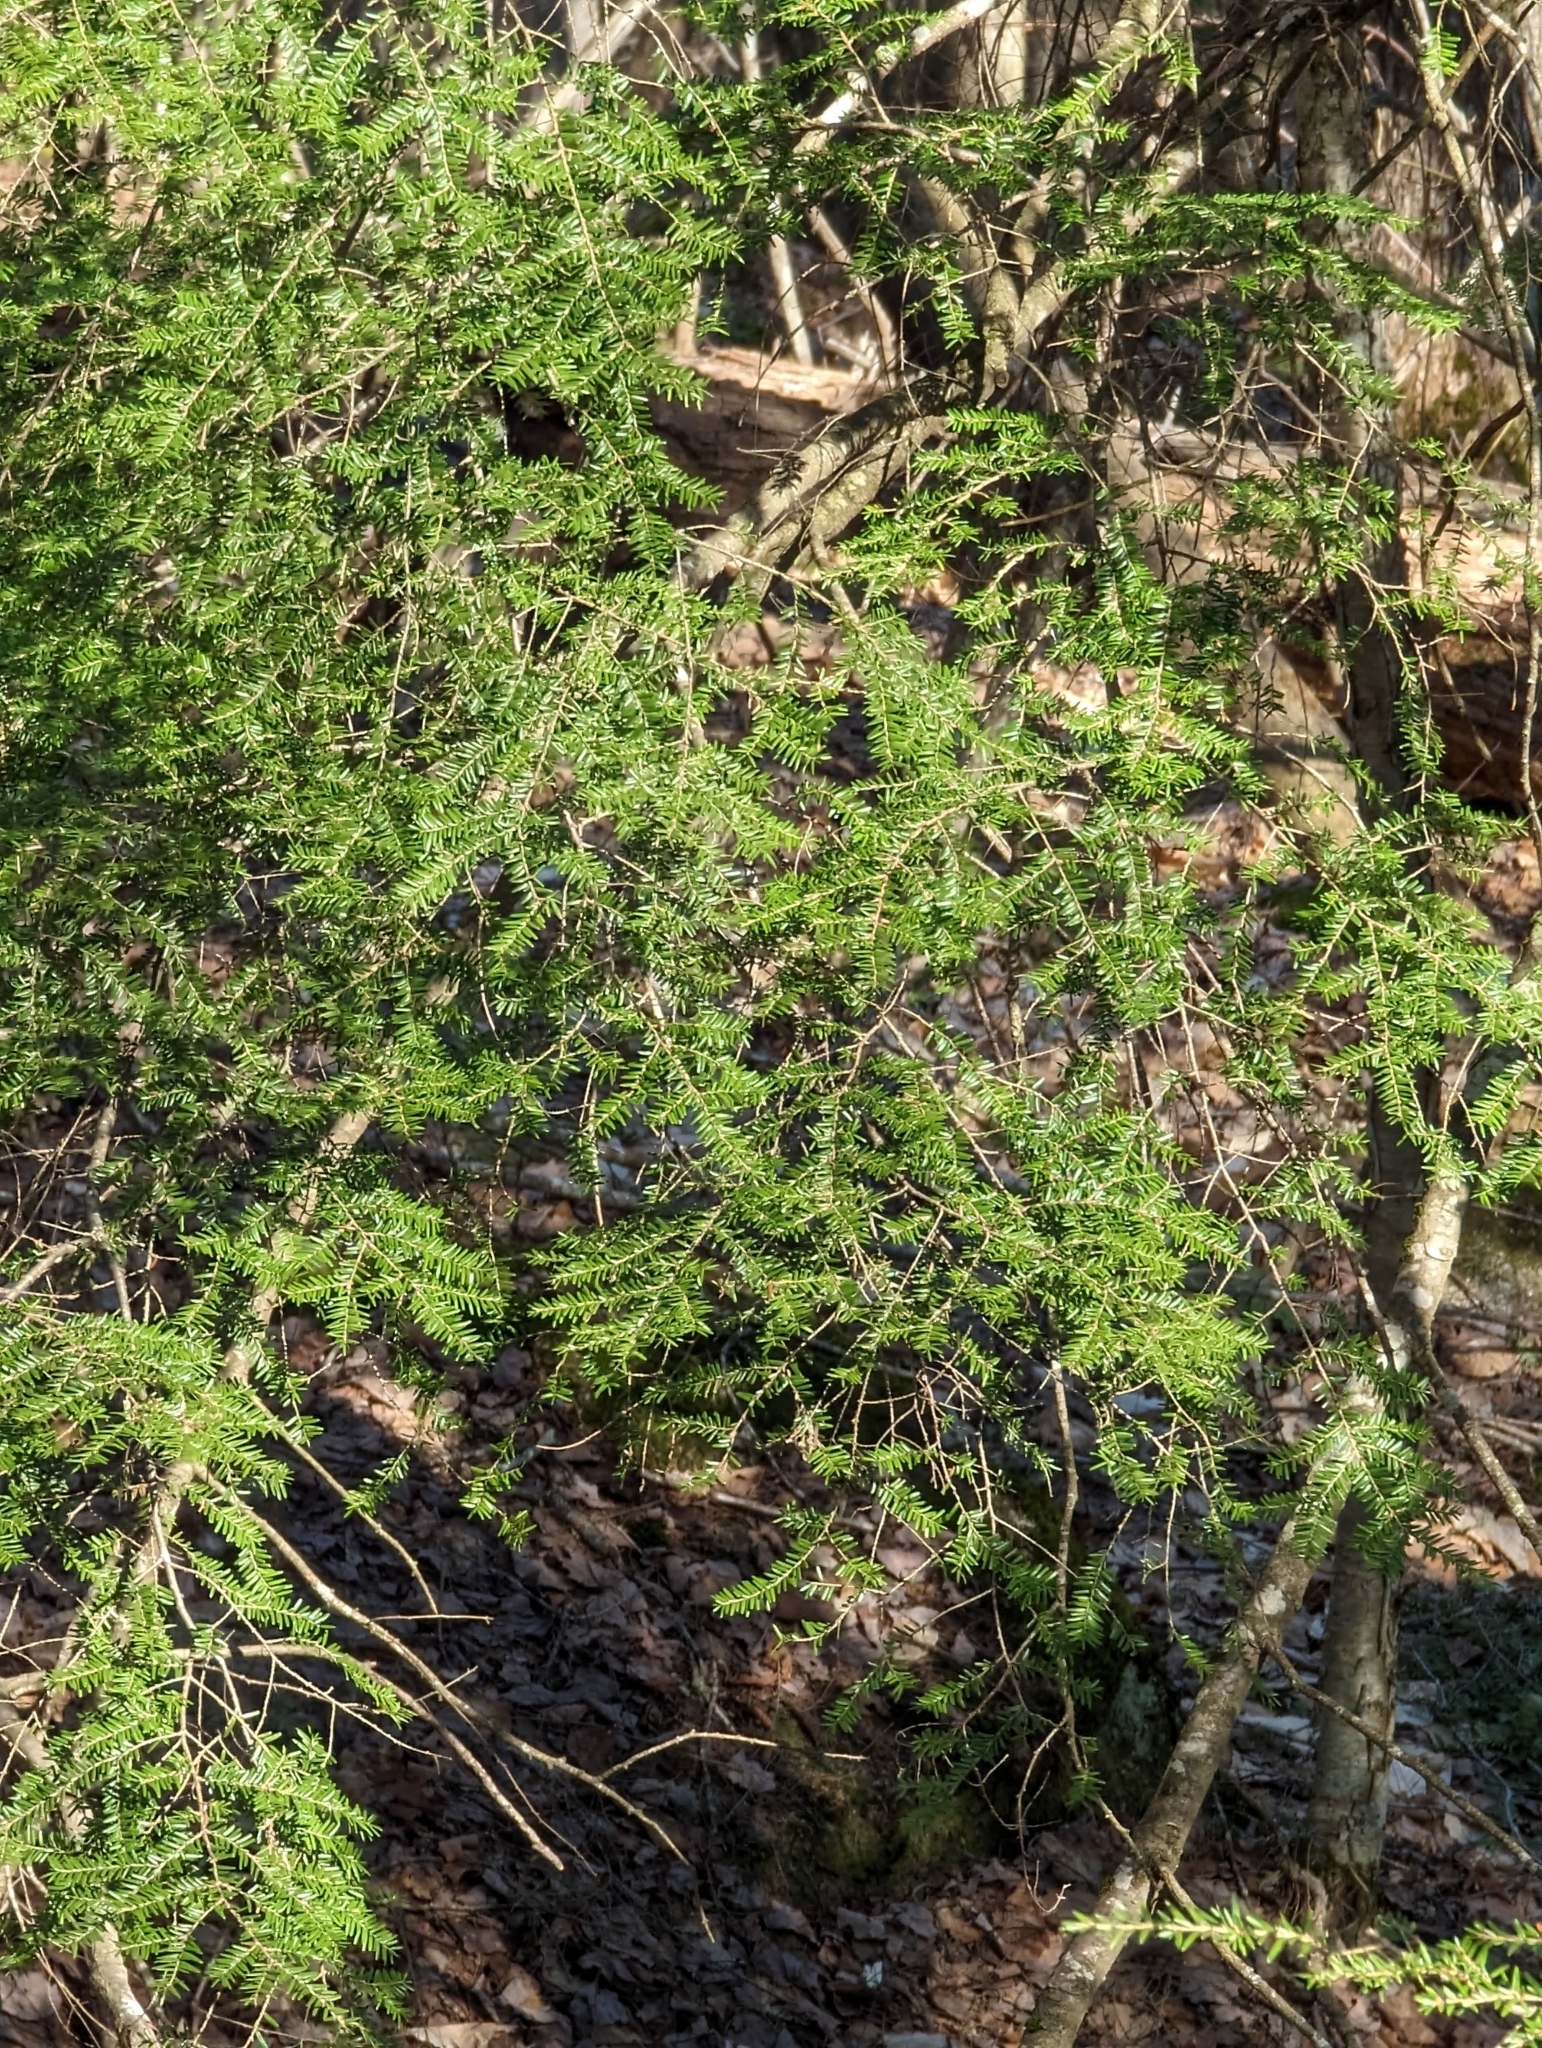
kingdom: Plantae
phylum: Tracheophyta
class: Pinopsida
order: Pinales
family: Pinaceae
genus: Tsuga
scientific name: Tsuga canadensis
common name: Eastern hemlock
